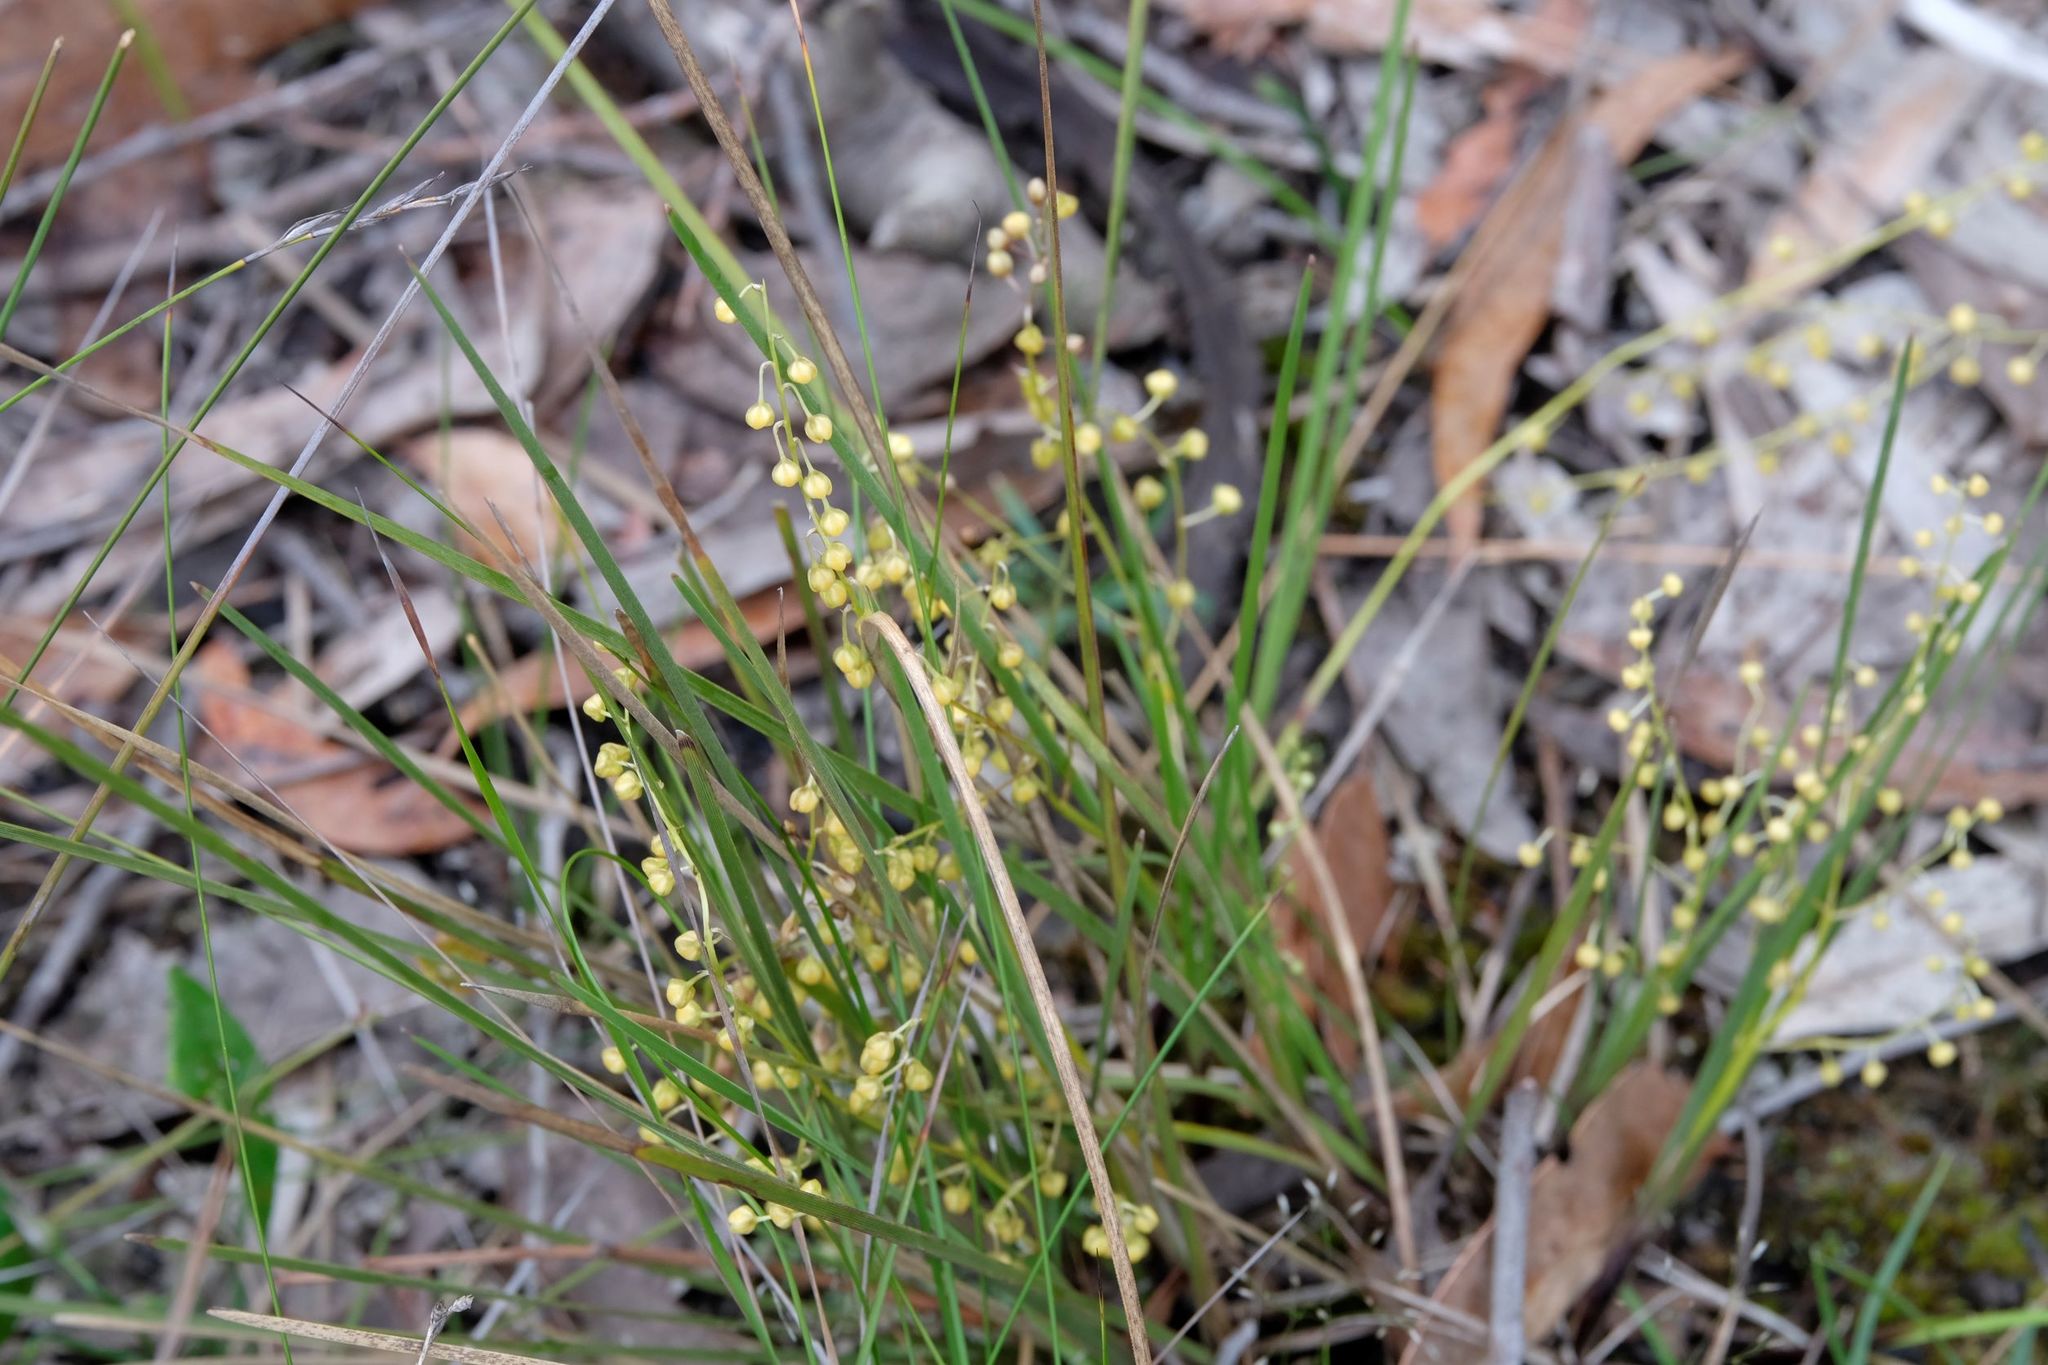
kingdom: Plantae
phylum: Tracheophyta
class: Liliopsida
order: Asparagales
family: Asparagaceae
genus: Lomandra
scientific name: Lomandra filiformis
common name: Wattle mat-rush
